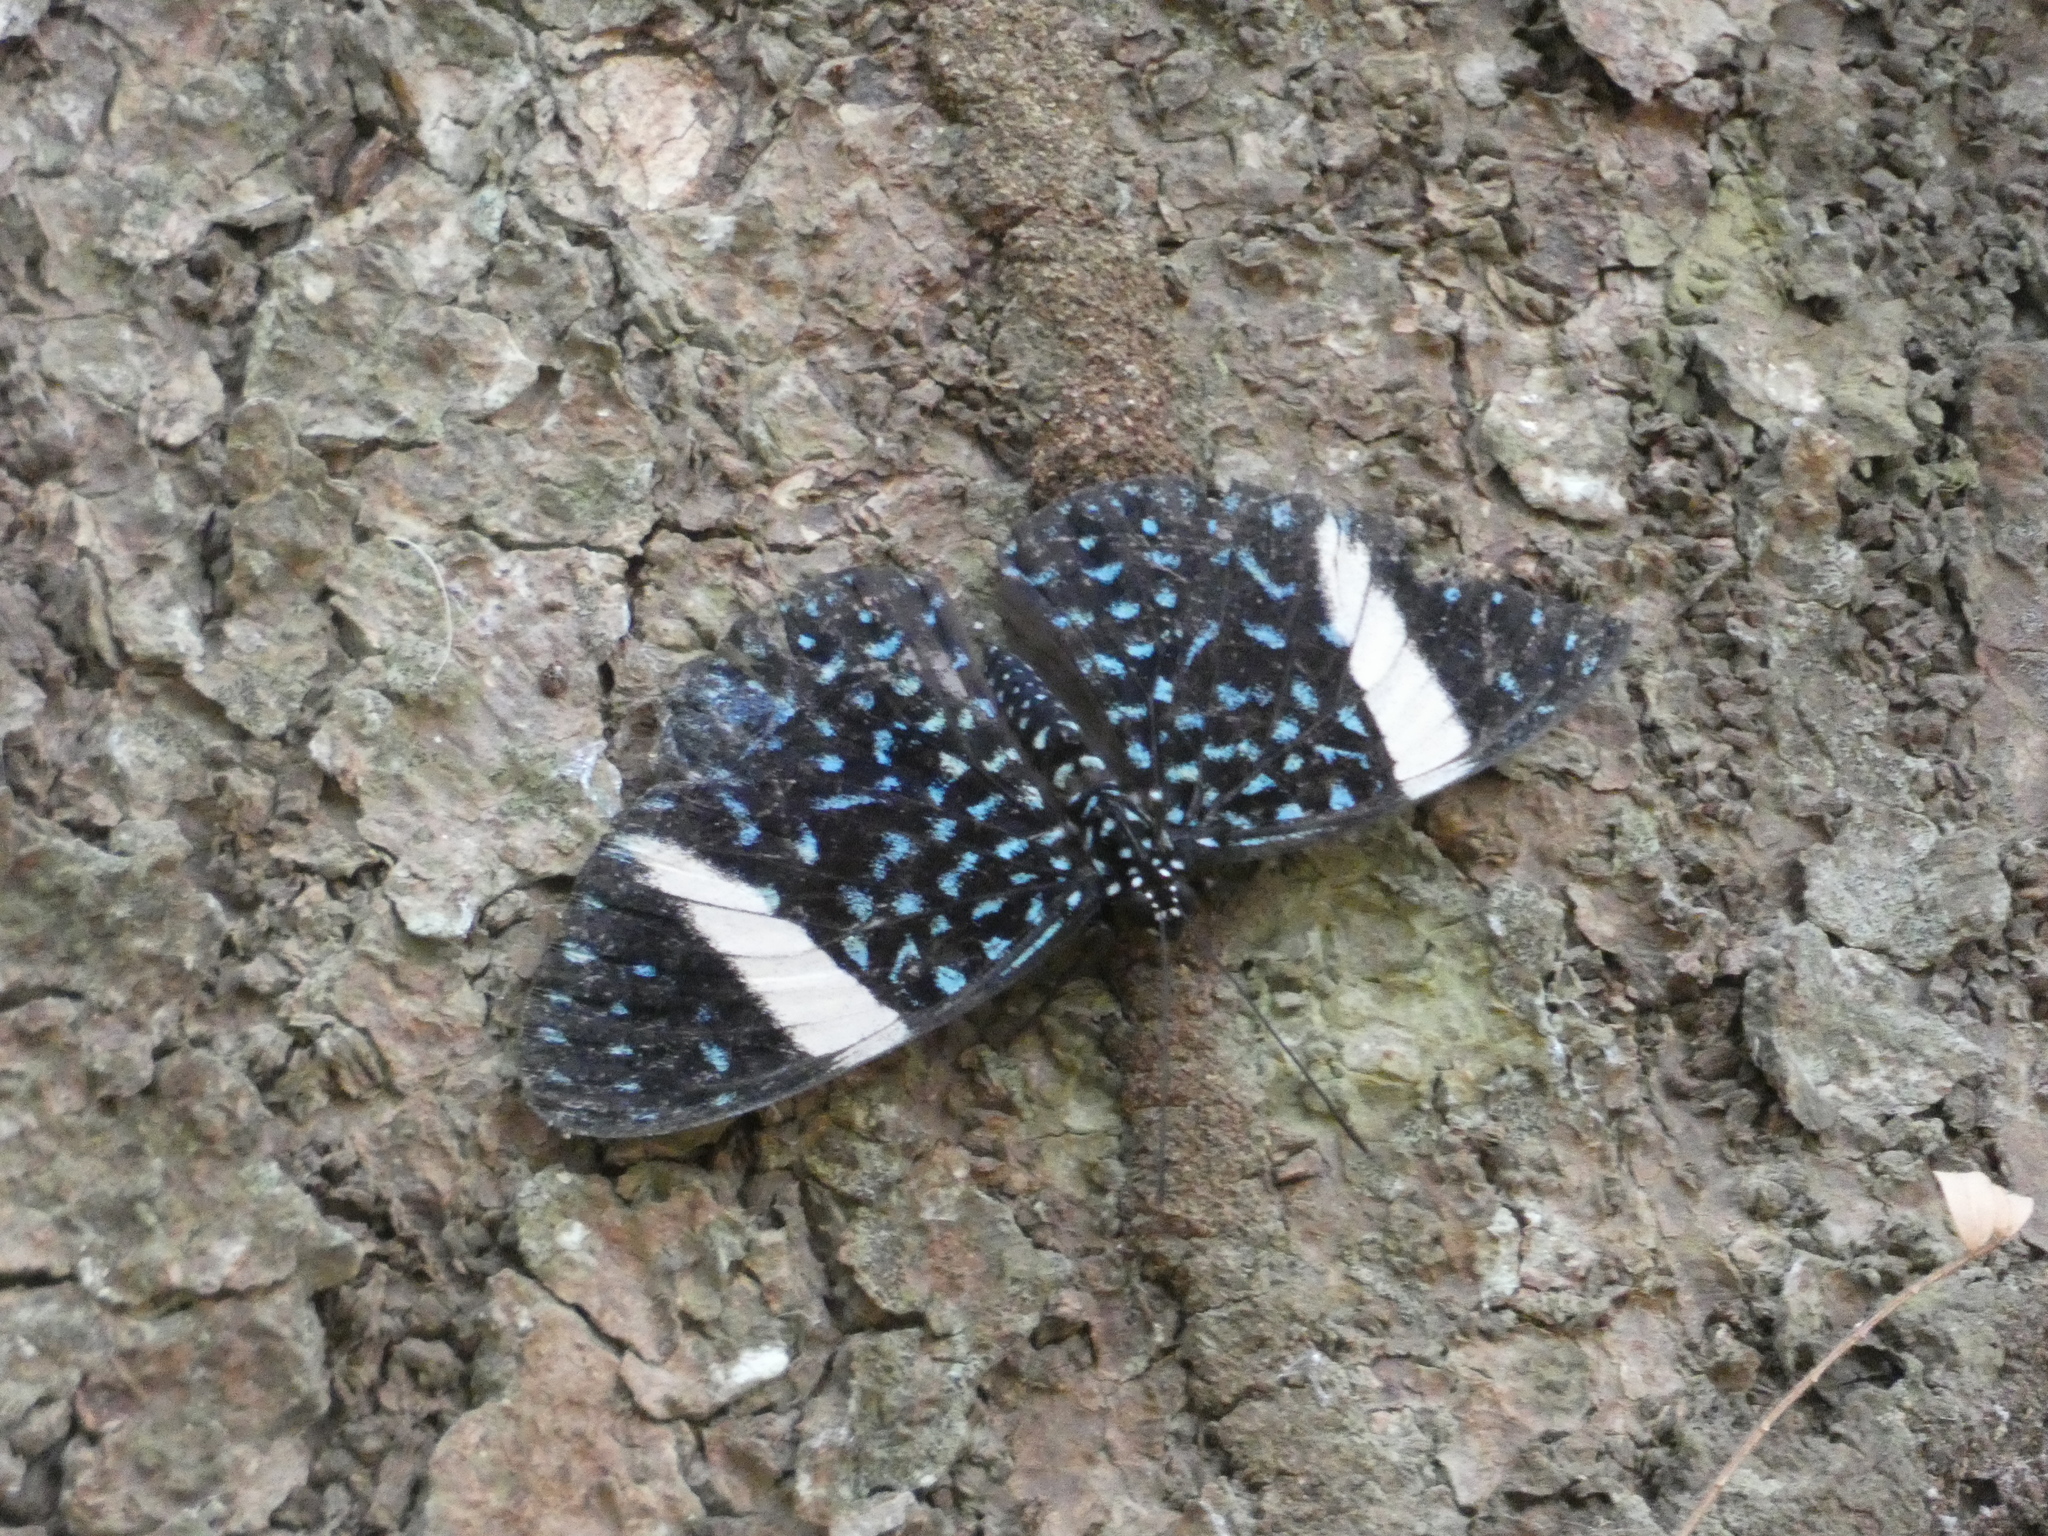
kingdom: Animalia
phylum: Arthropoda
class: Insecta
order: Lepidoptera
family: Nymphalidae
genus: Hamadryas
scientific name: Hamadryas laodamia
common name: Starry night cracker
